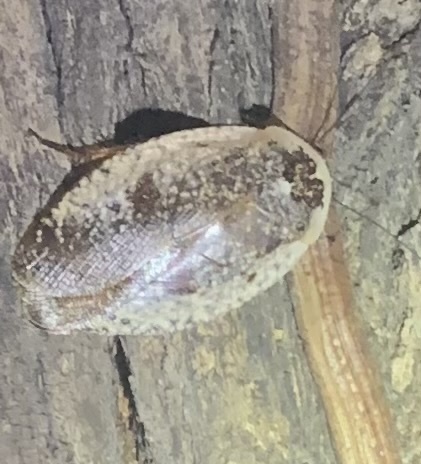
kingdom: Animalia
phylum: Arthropoda
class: Insecta
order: Blattodea
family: Blaberidae
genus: Gyna
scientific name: Gyna caffrorum
